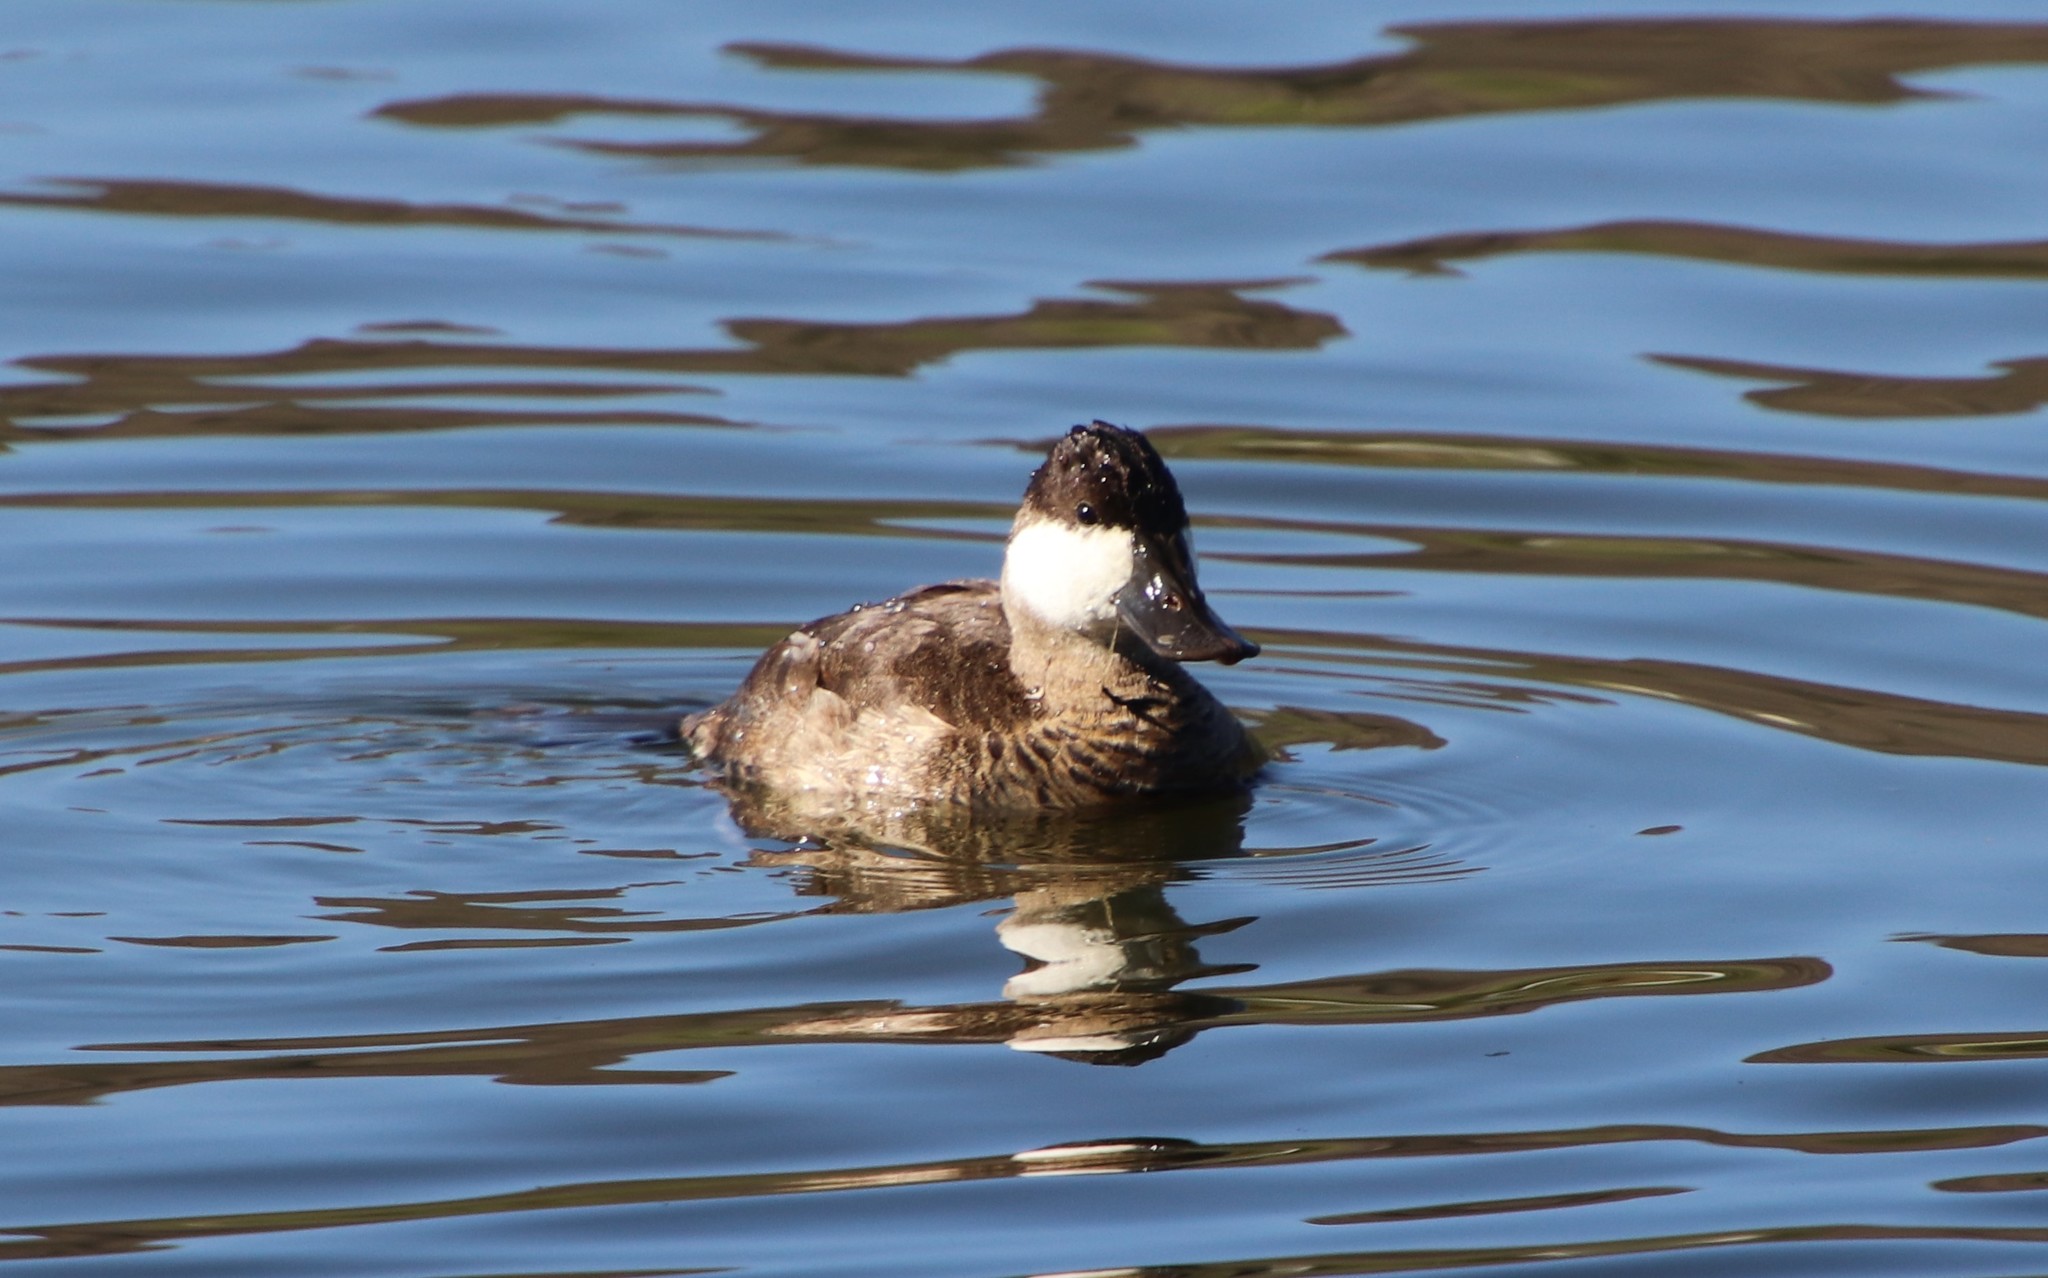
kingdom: Animalia
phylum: Chordata
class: Aves
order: Anseriformes
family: Anatidae
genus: Oxyura
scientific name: Oxyura jamaicensis
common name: Ruddy duck
